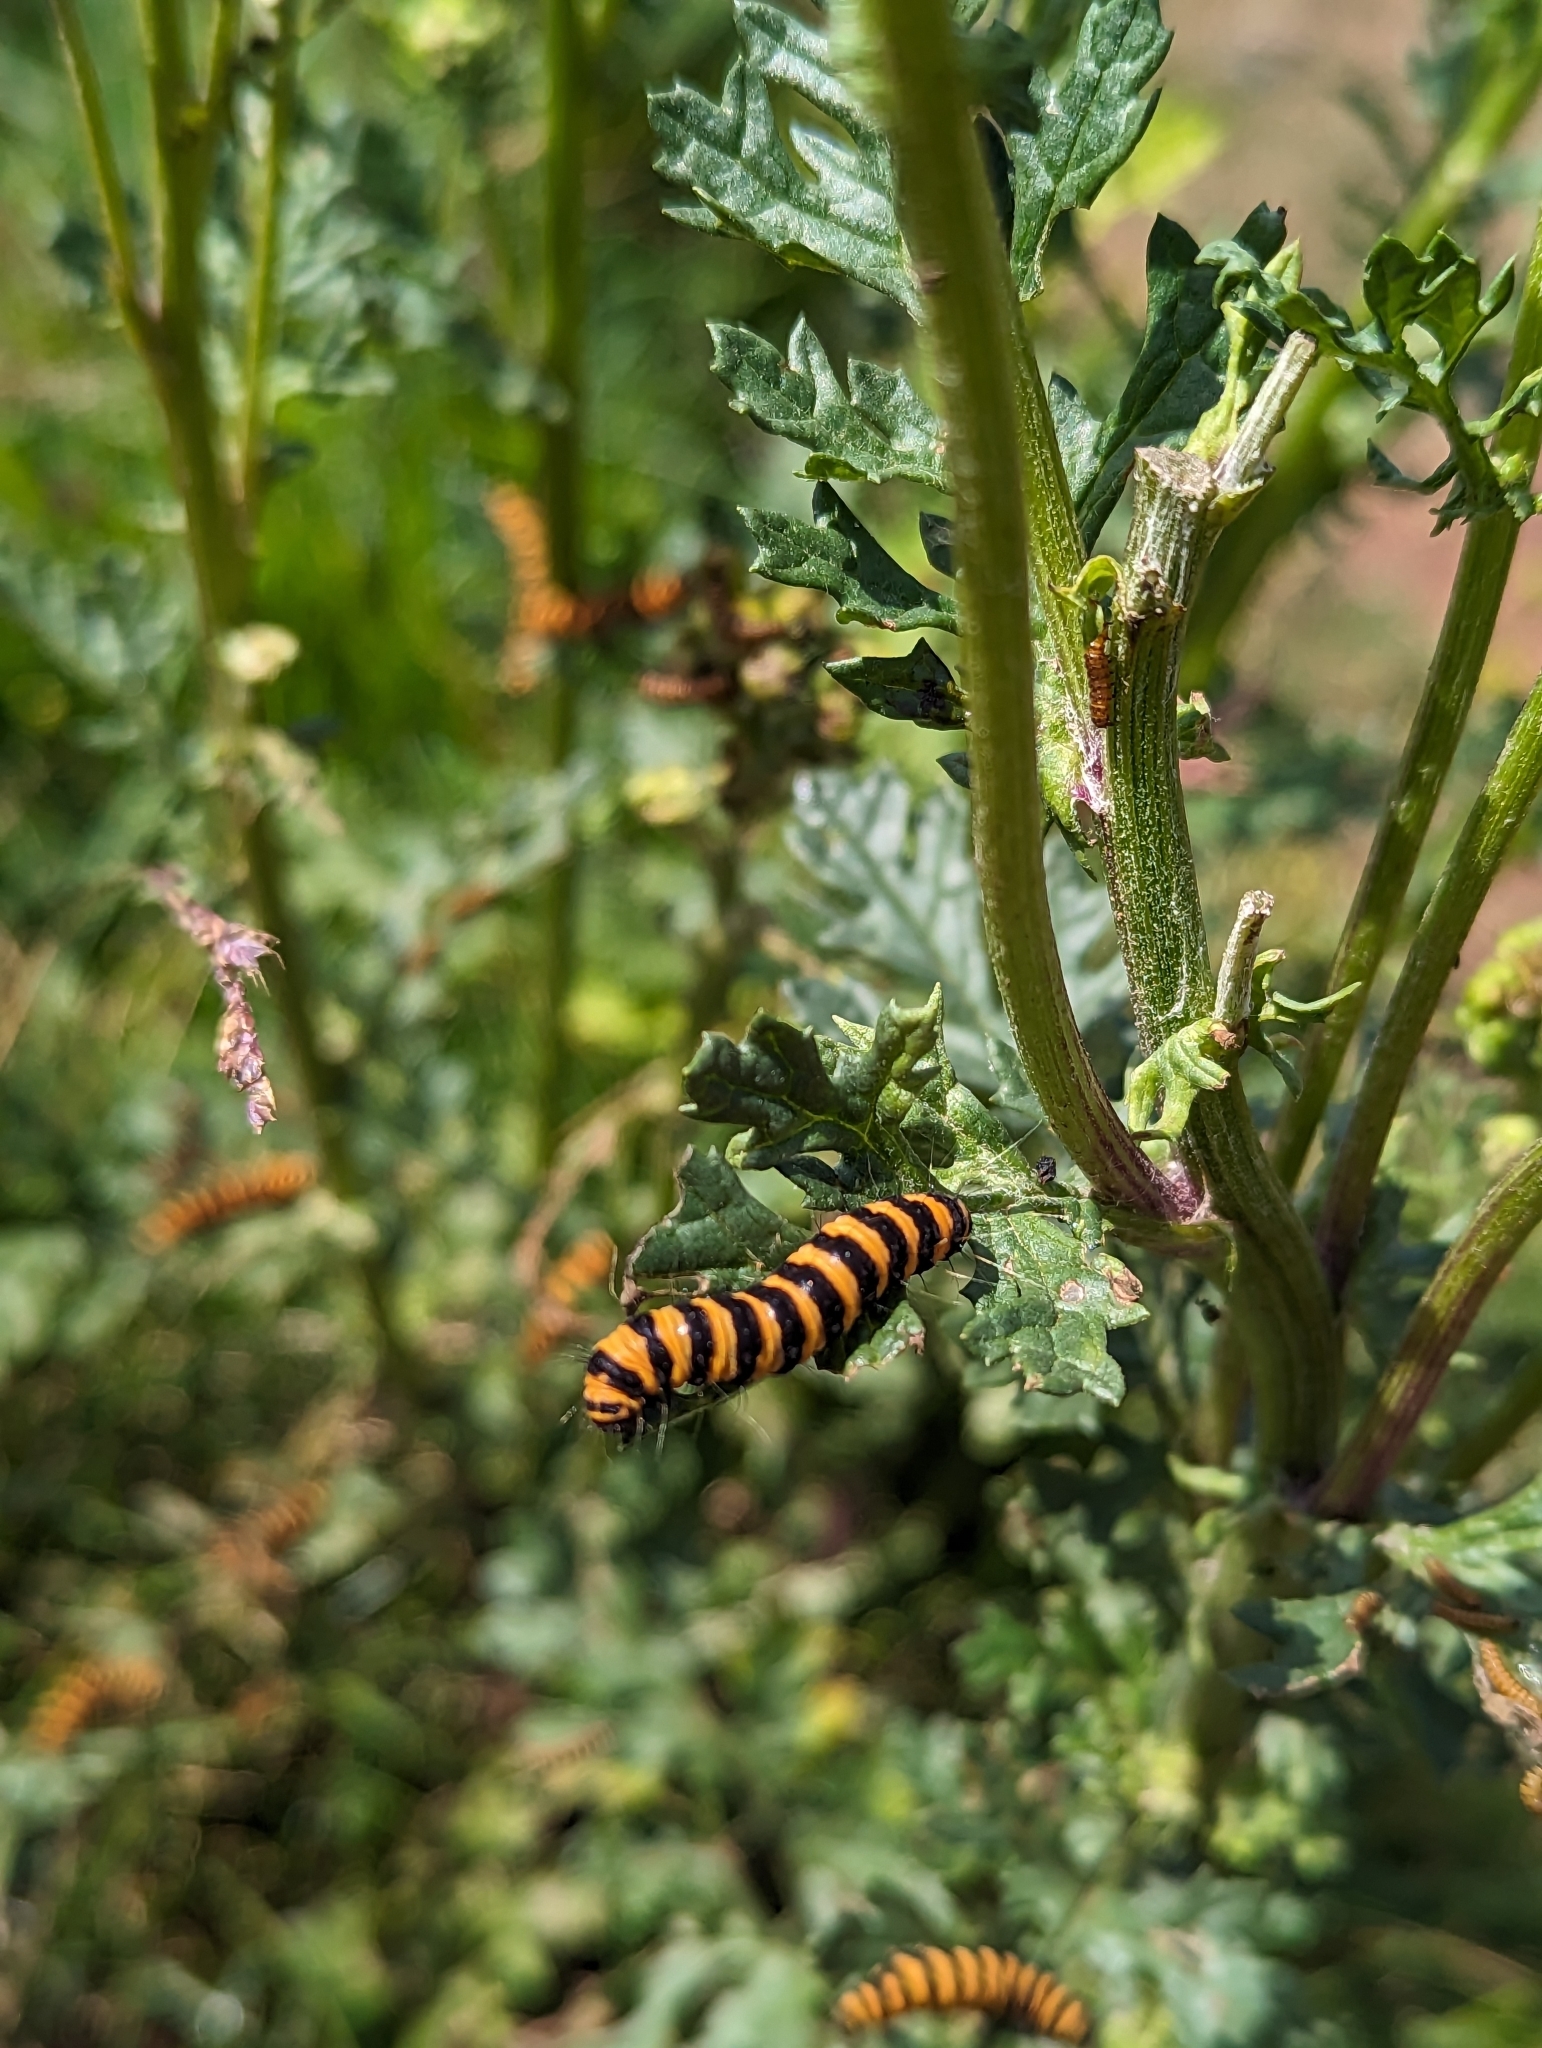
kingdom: Animalia
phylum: Arthropoda
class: Insecta
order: Lepidoptera
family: Erebidae
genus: Tyria
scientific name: Tyria jacobaeae
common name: Cinnabar
